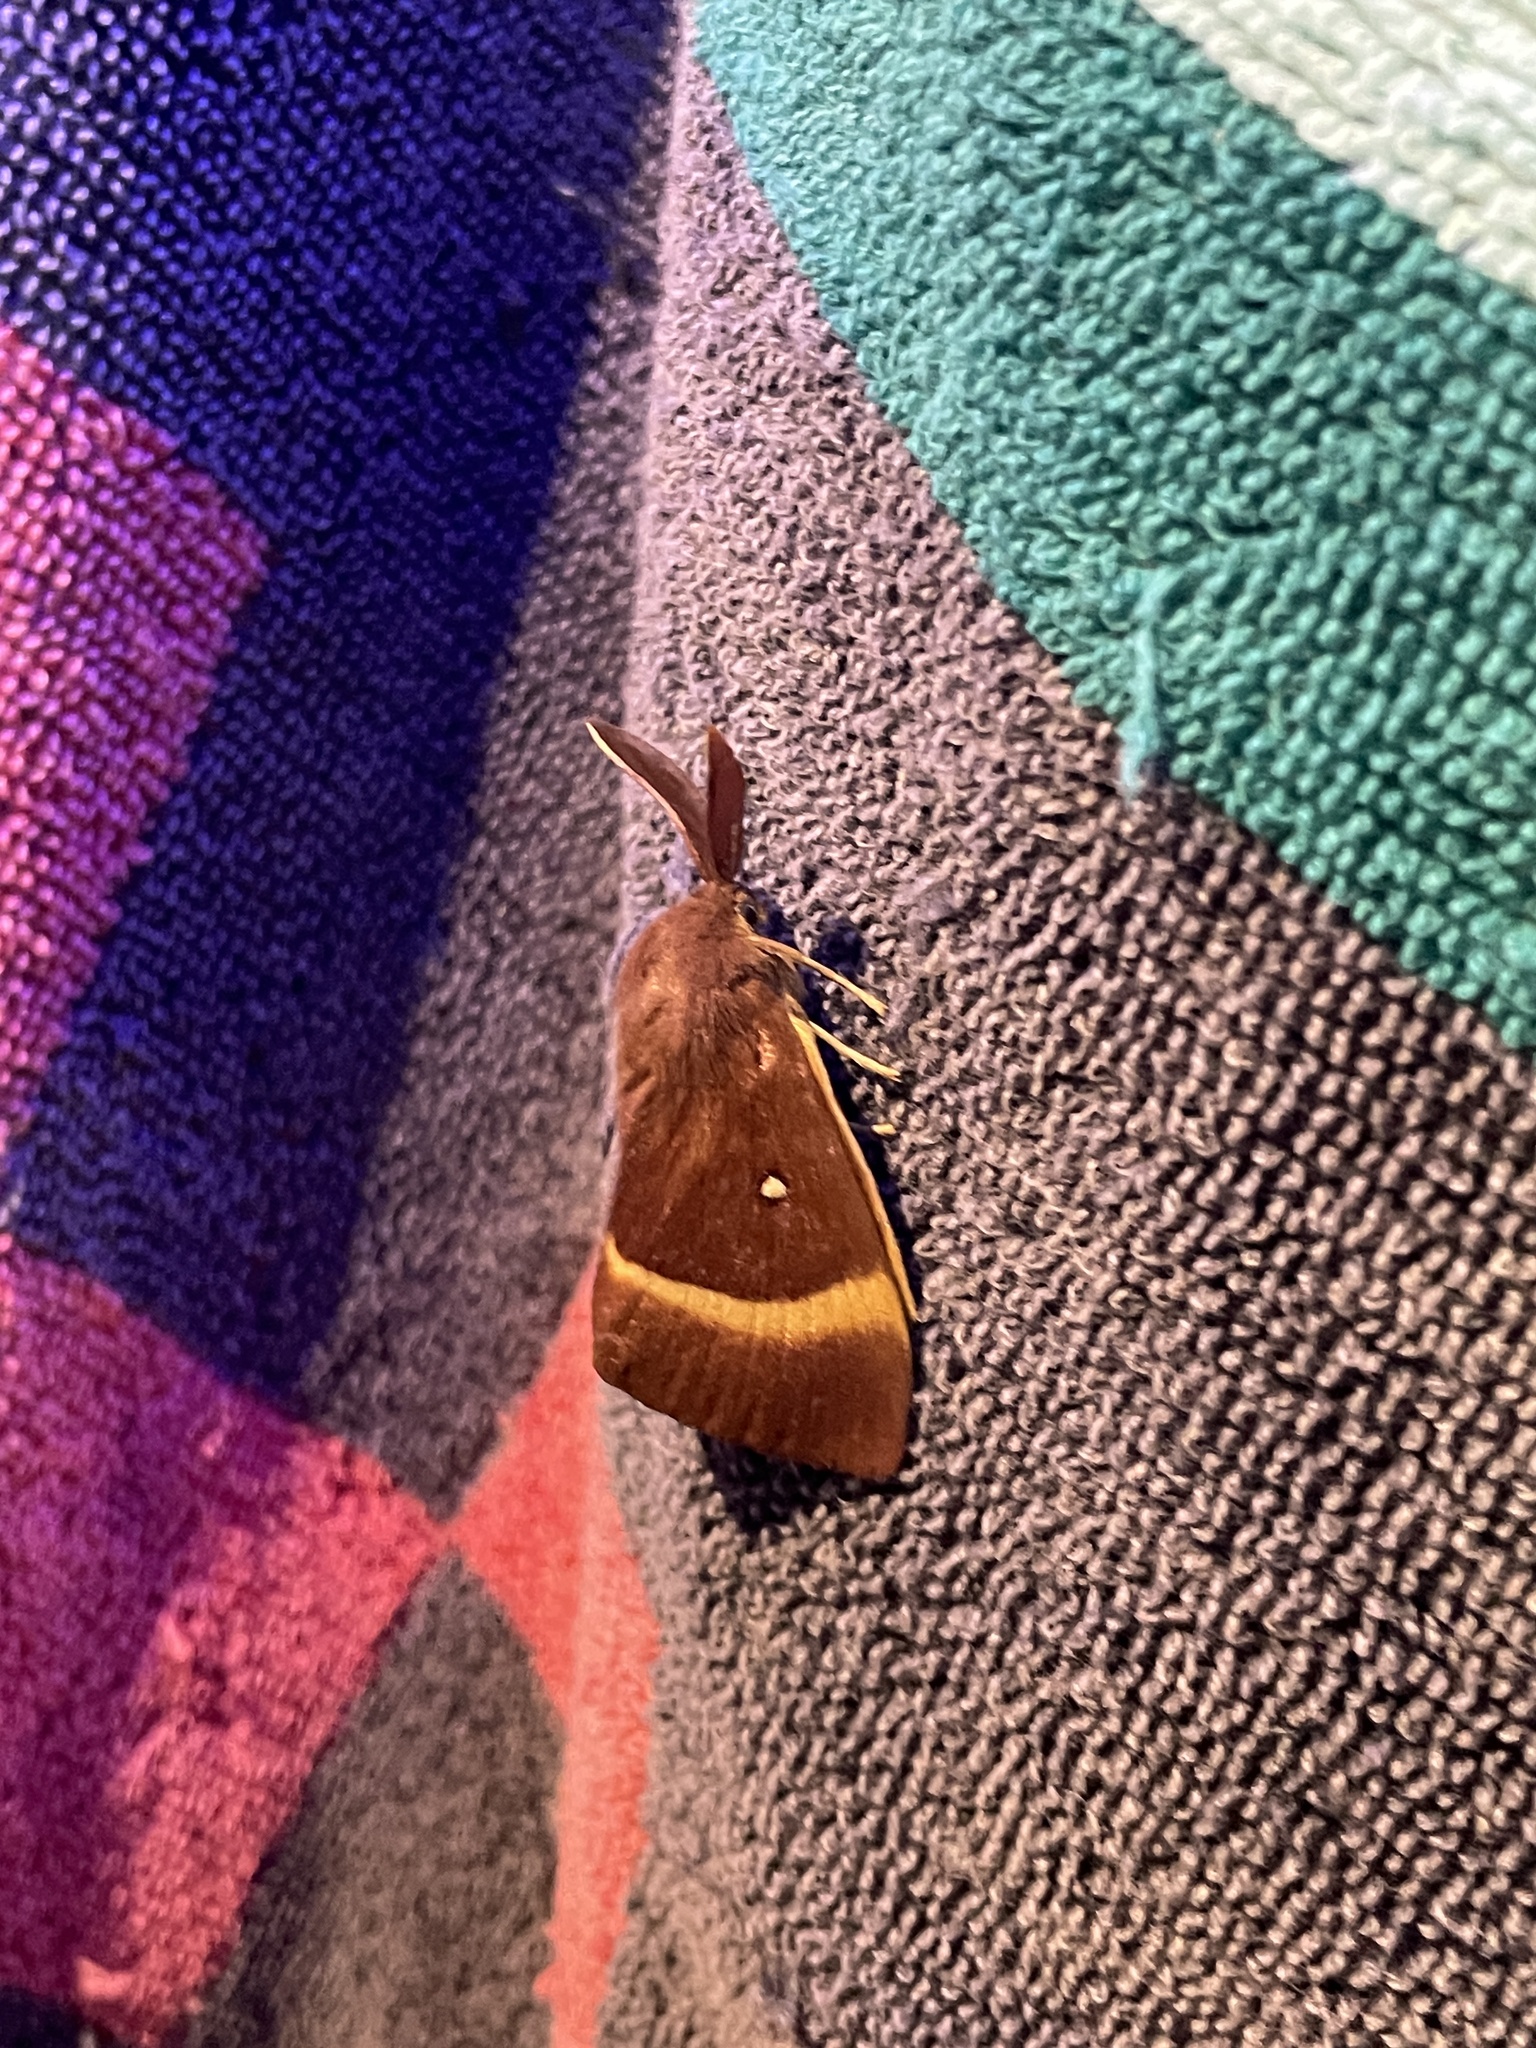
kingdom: Animalia
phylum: Arthropoda
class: Insecta
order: Lepidoptera
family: Lasiocampidae
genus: Lasiocampa
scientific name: Lasiocampa quercus
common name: Oak eggar
